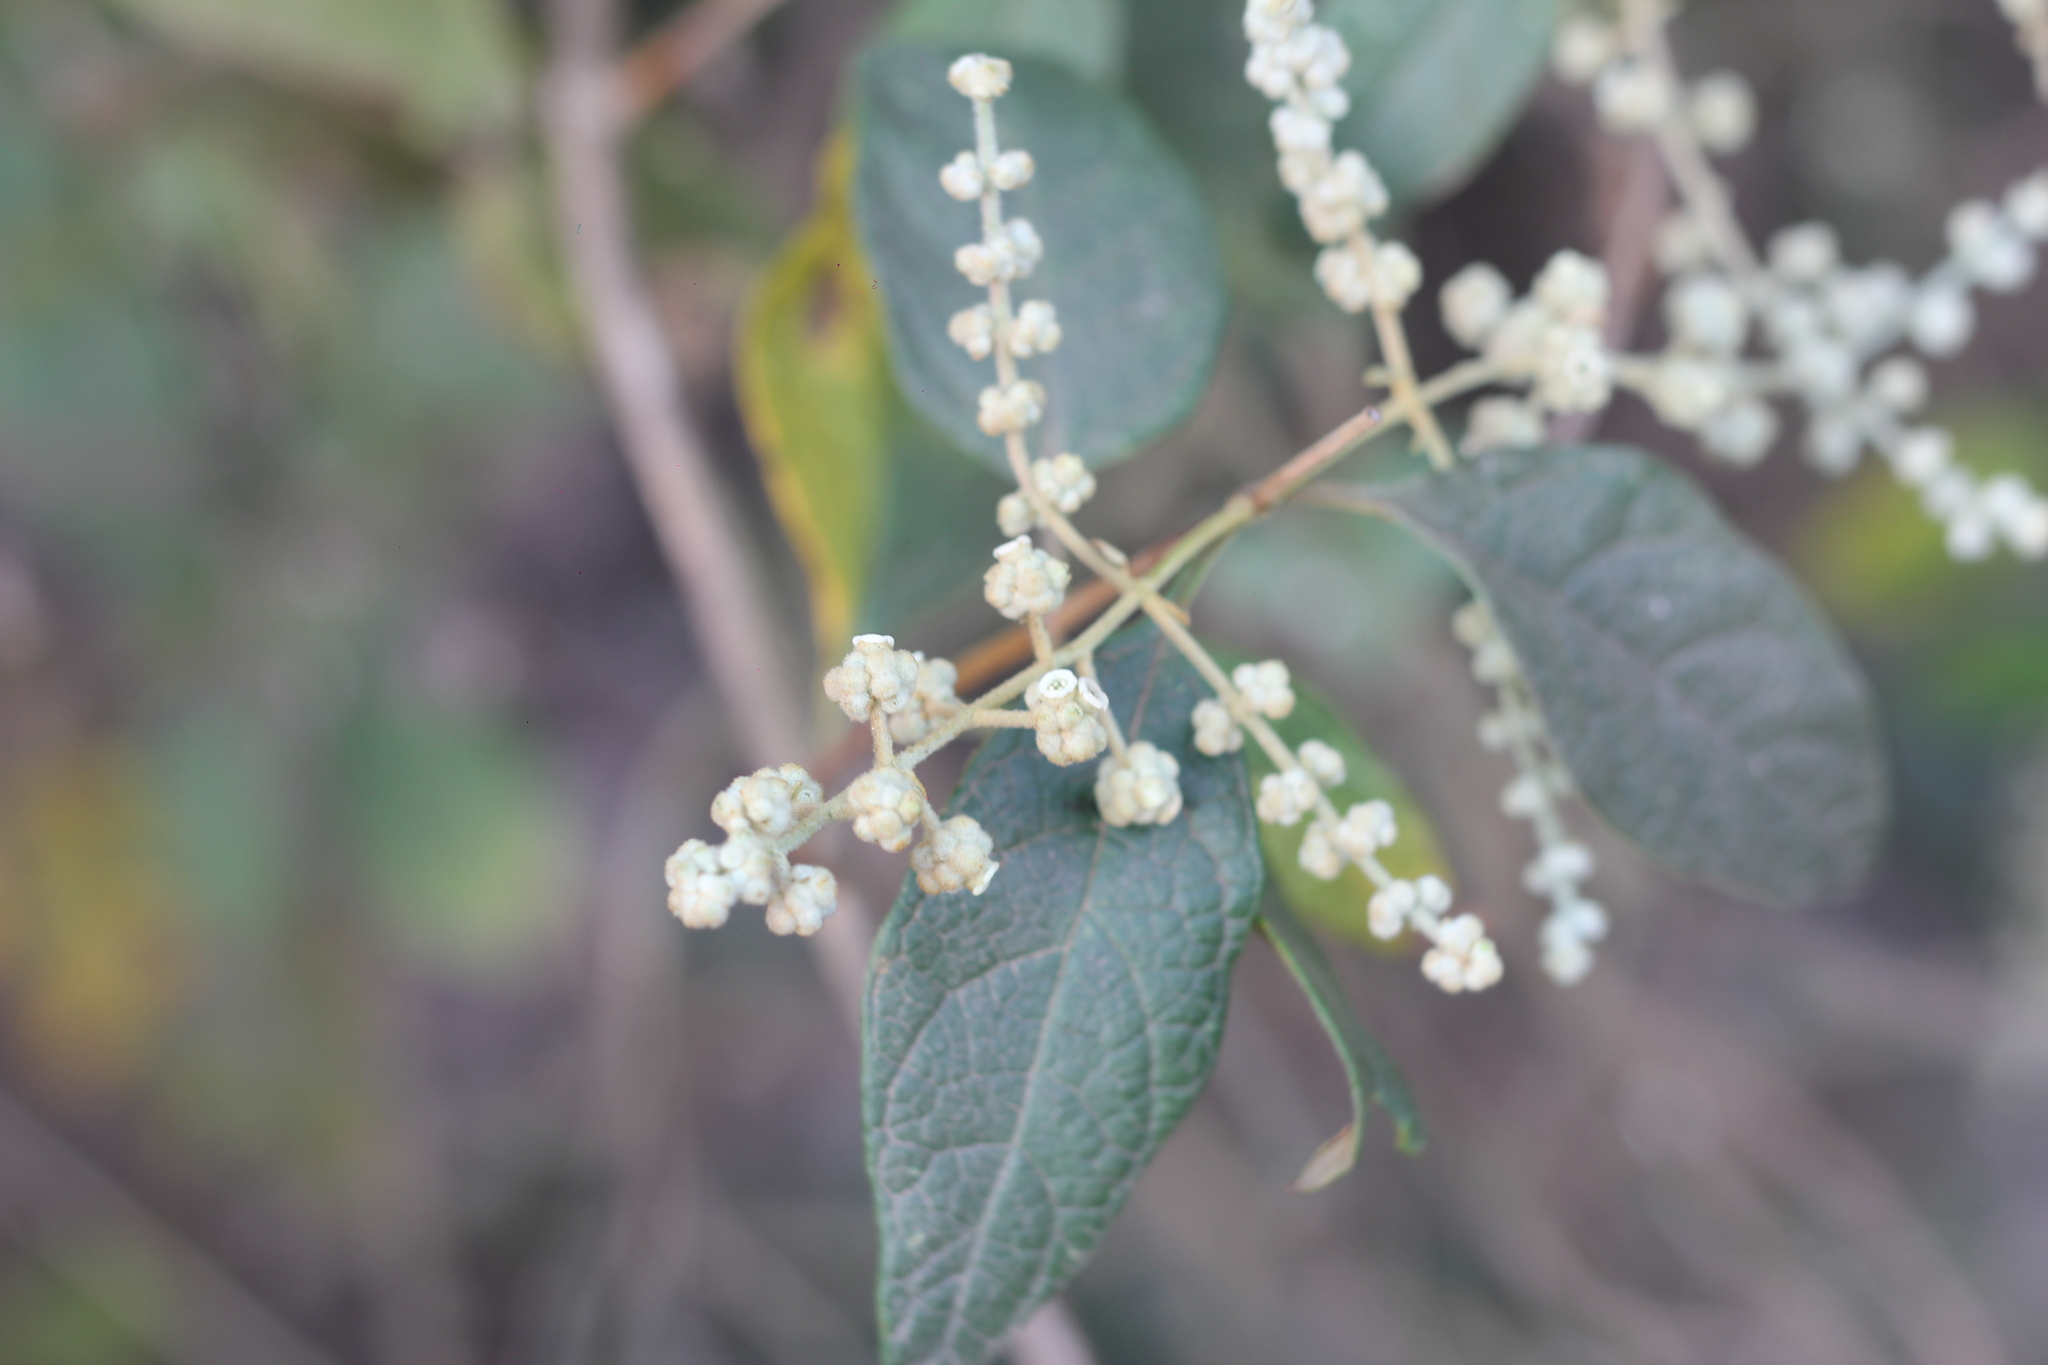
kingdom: Plantae
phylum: Tracheophyta
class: Magnoliopsida
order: Lamiales
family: Scrophulariaceae
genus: Buddleja
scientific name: Buddleja iresinoides
